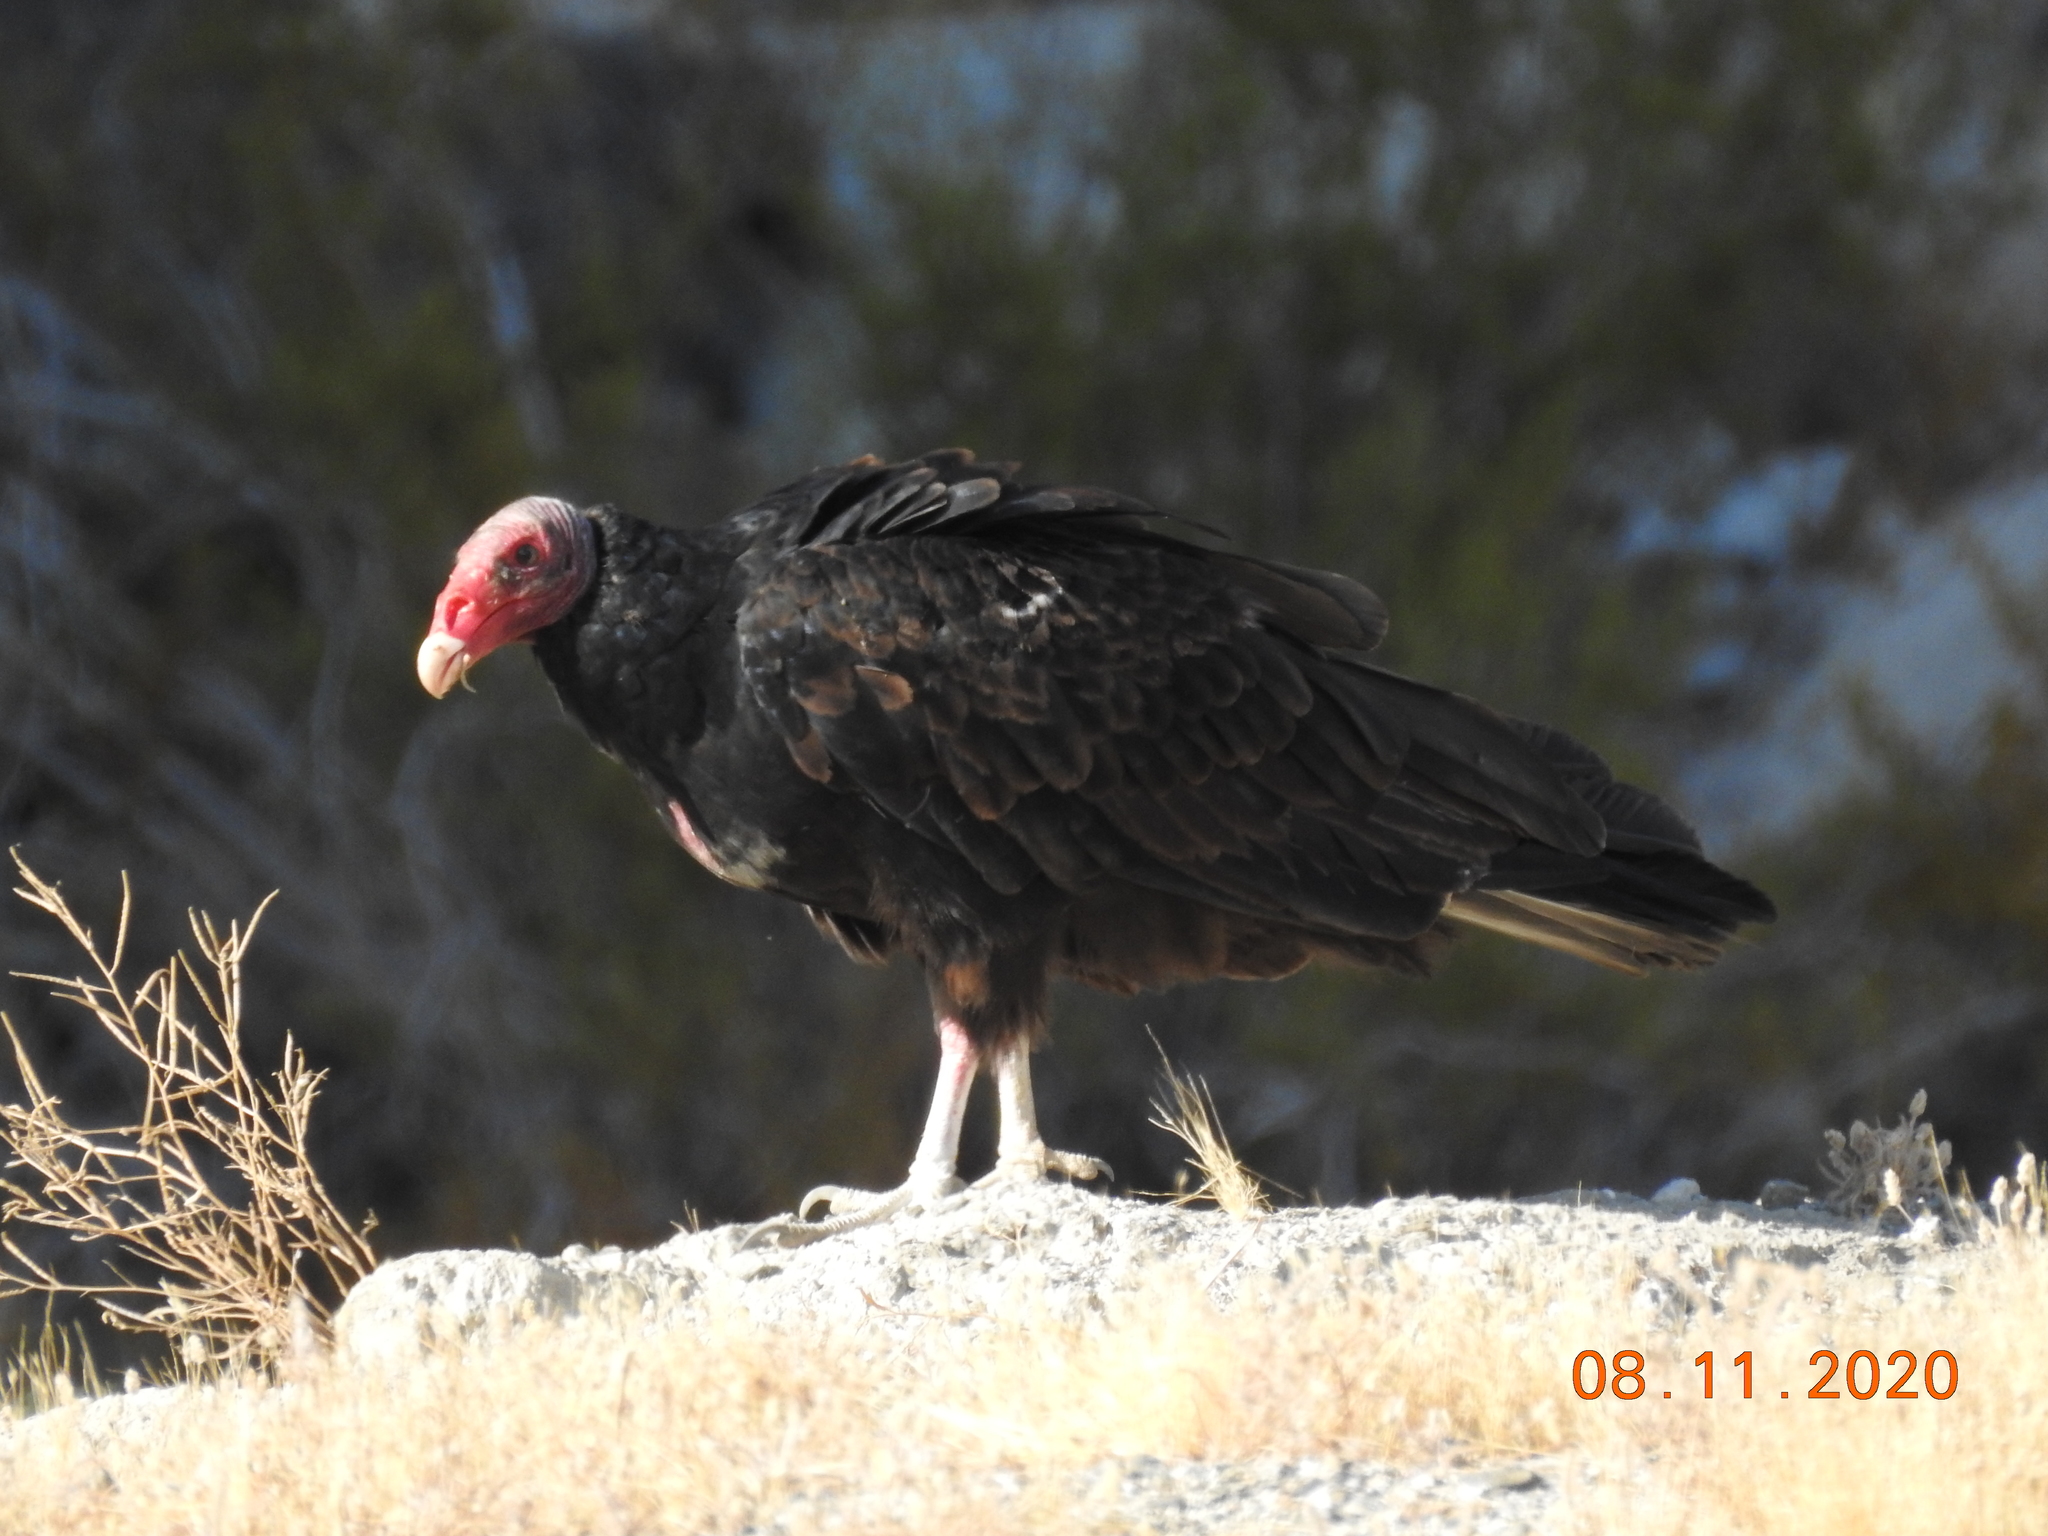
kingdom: Animalia
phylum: Chordata
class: Aves
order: Accipitriformes
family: Cathartidae
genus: Cathartes
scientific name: Cathartes aura
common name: Turkey vulture
